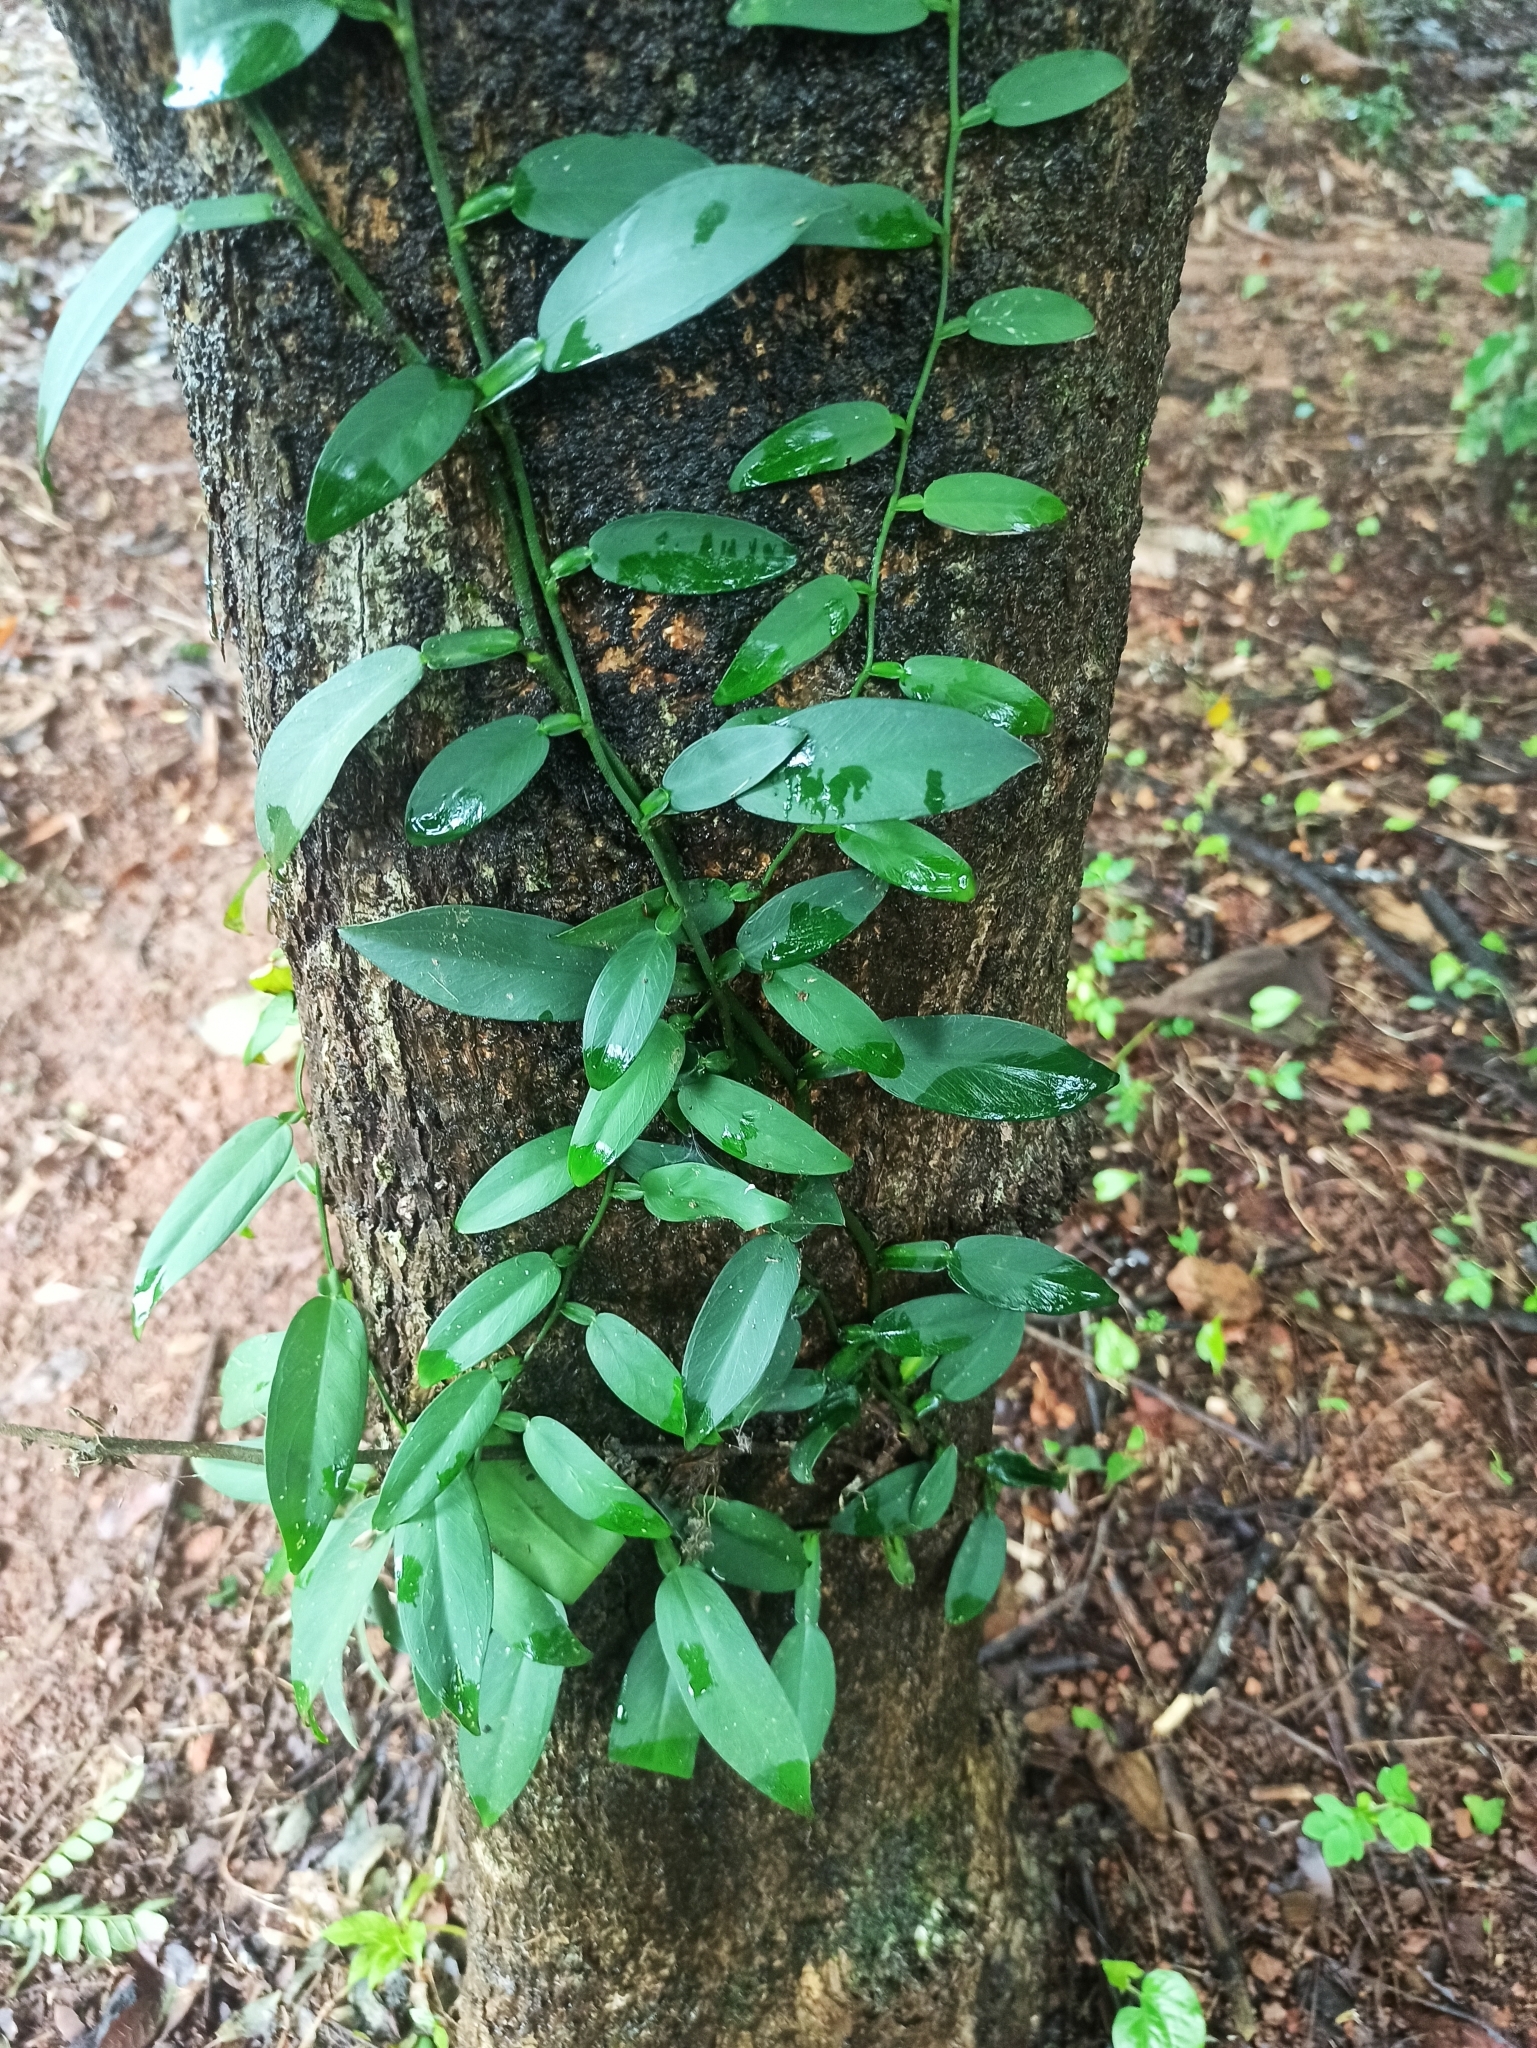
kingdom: Plantae
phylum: Tracheophyta
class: Liliopsida
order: Alismatales
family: Araceae
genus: Pothos
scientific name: Pothos scandens
